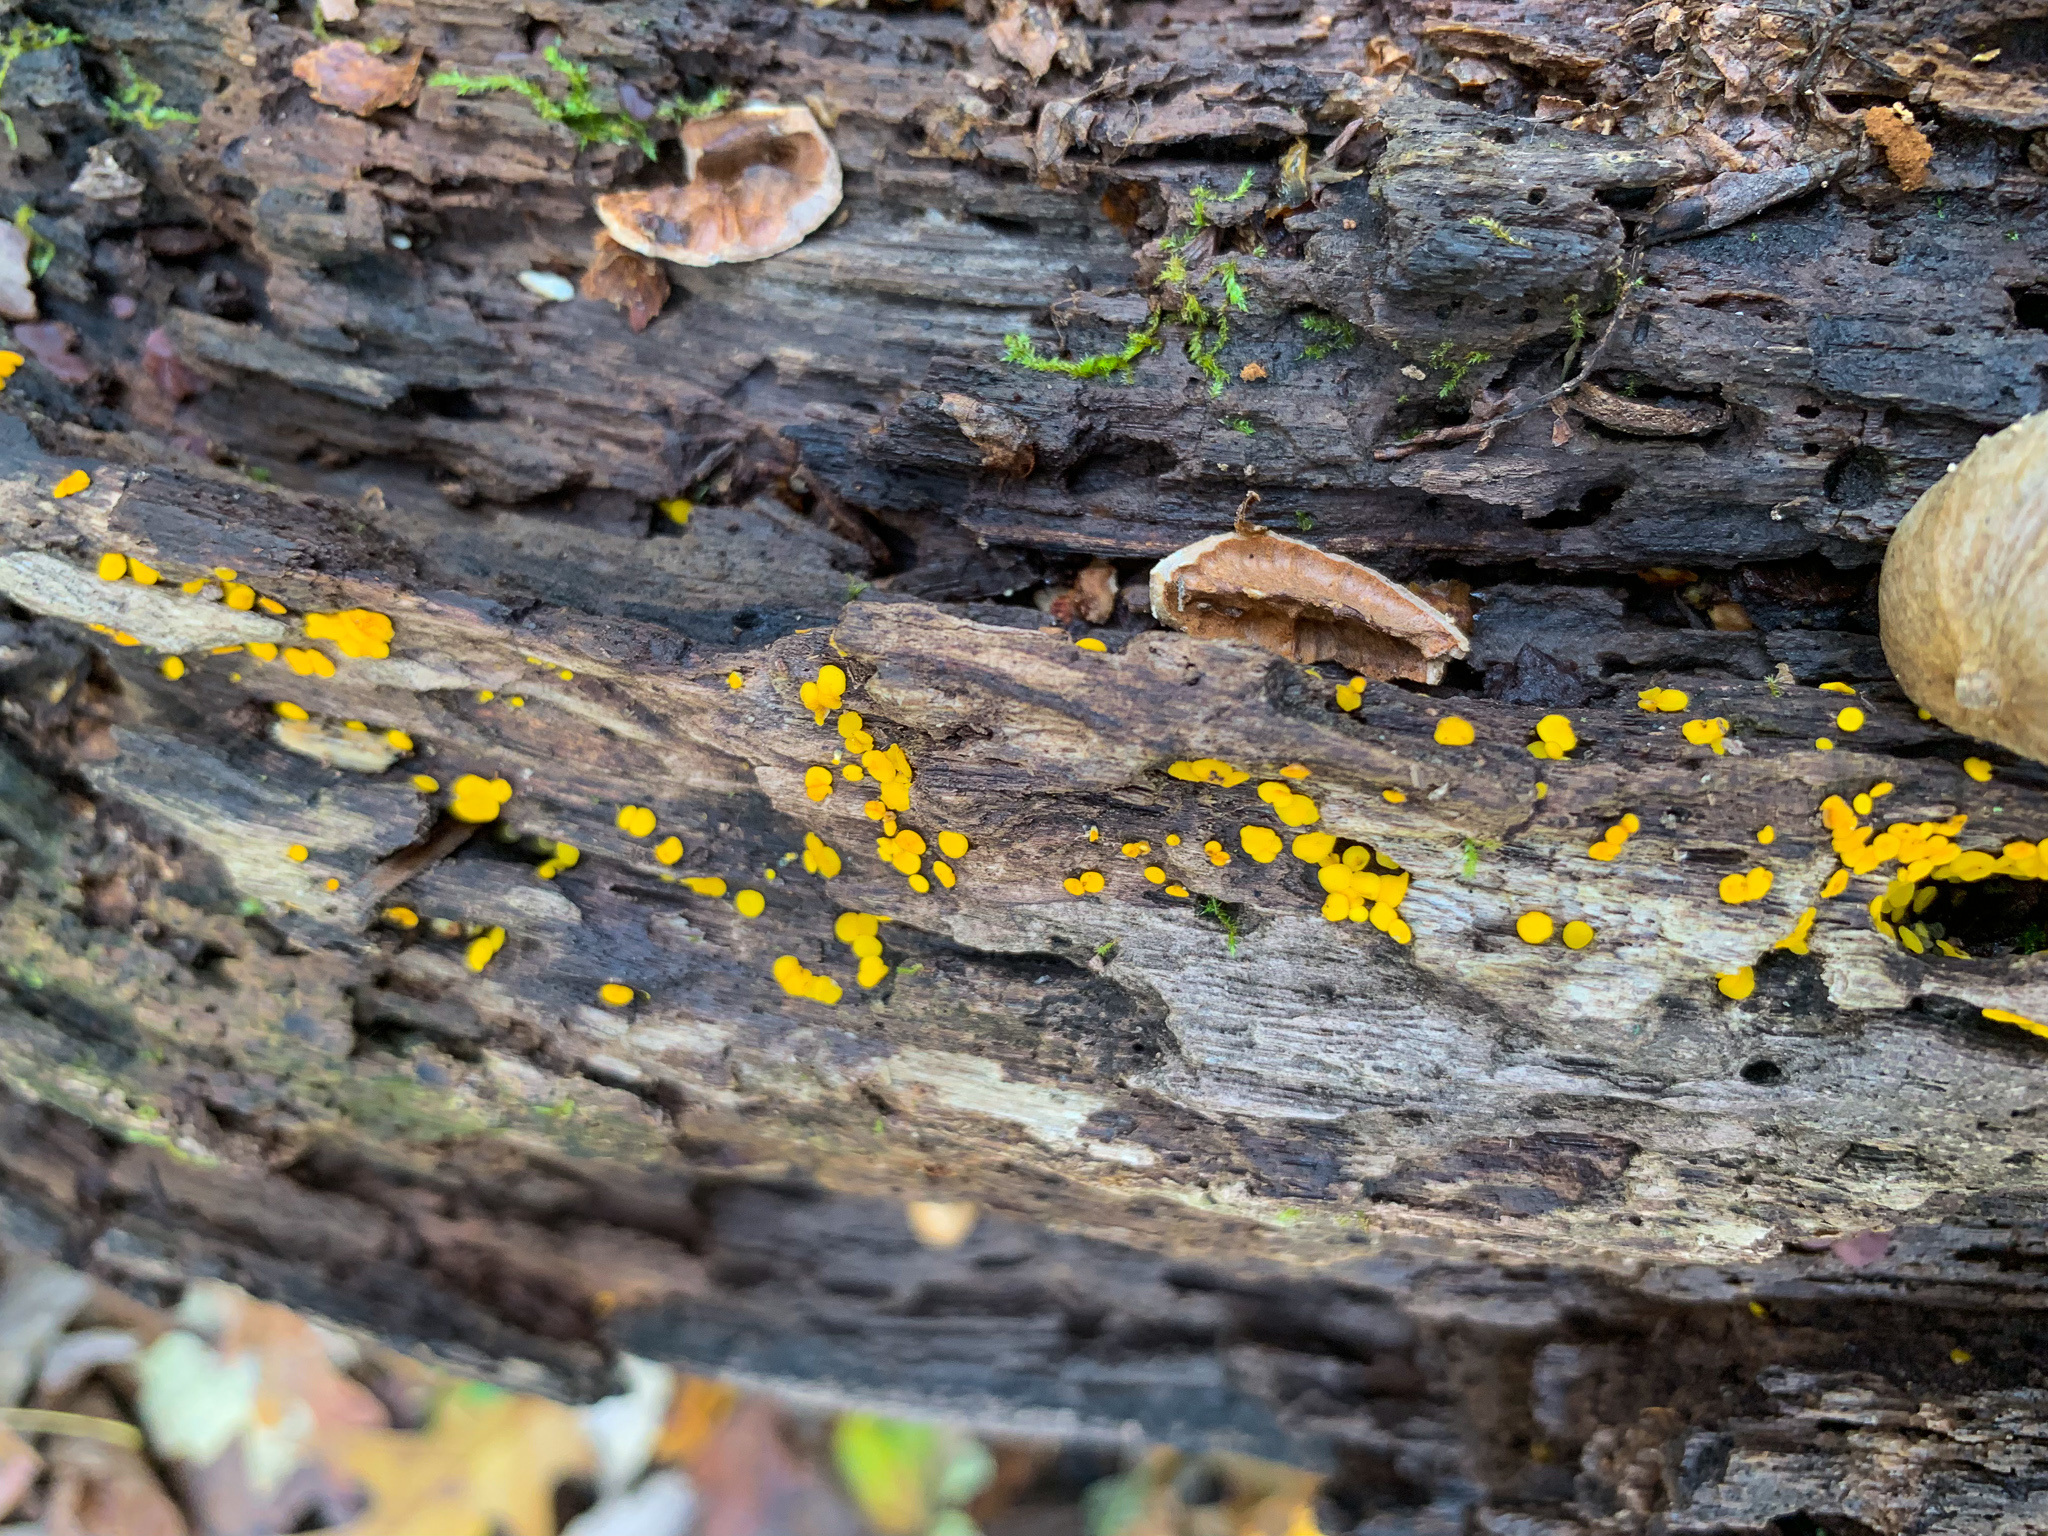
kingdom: Fungi
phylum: Ascomycota
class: Leotiomycetes
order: Helotiales
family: Pezizellaceae
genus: Calycina
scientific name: Calycina citrina
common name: Yellow fairy cups
